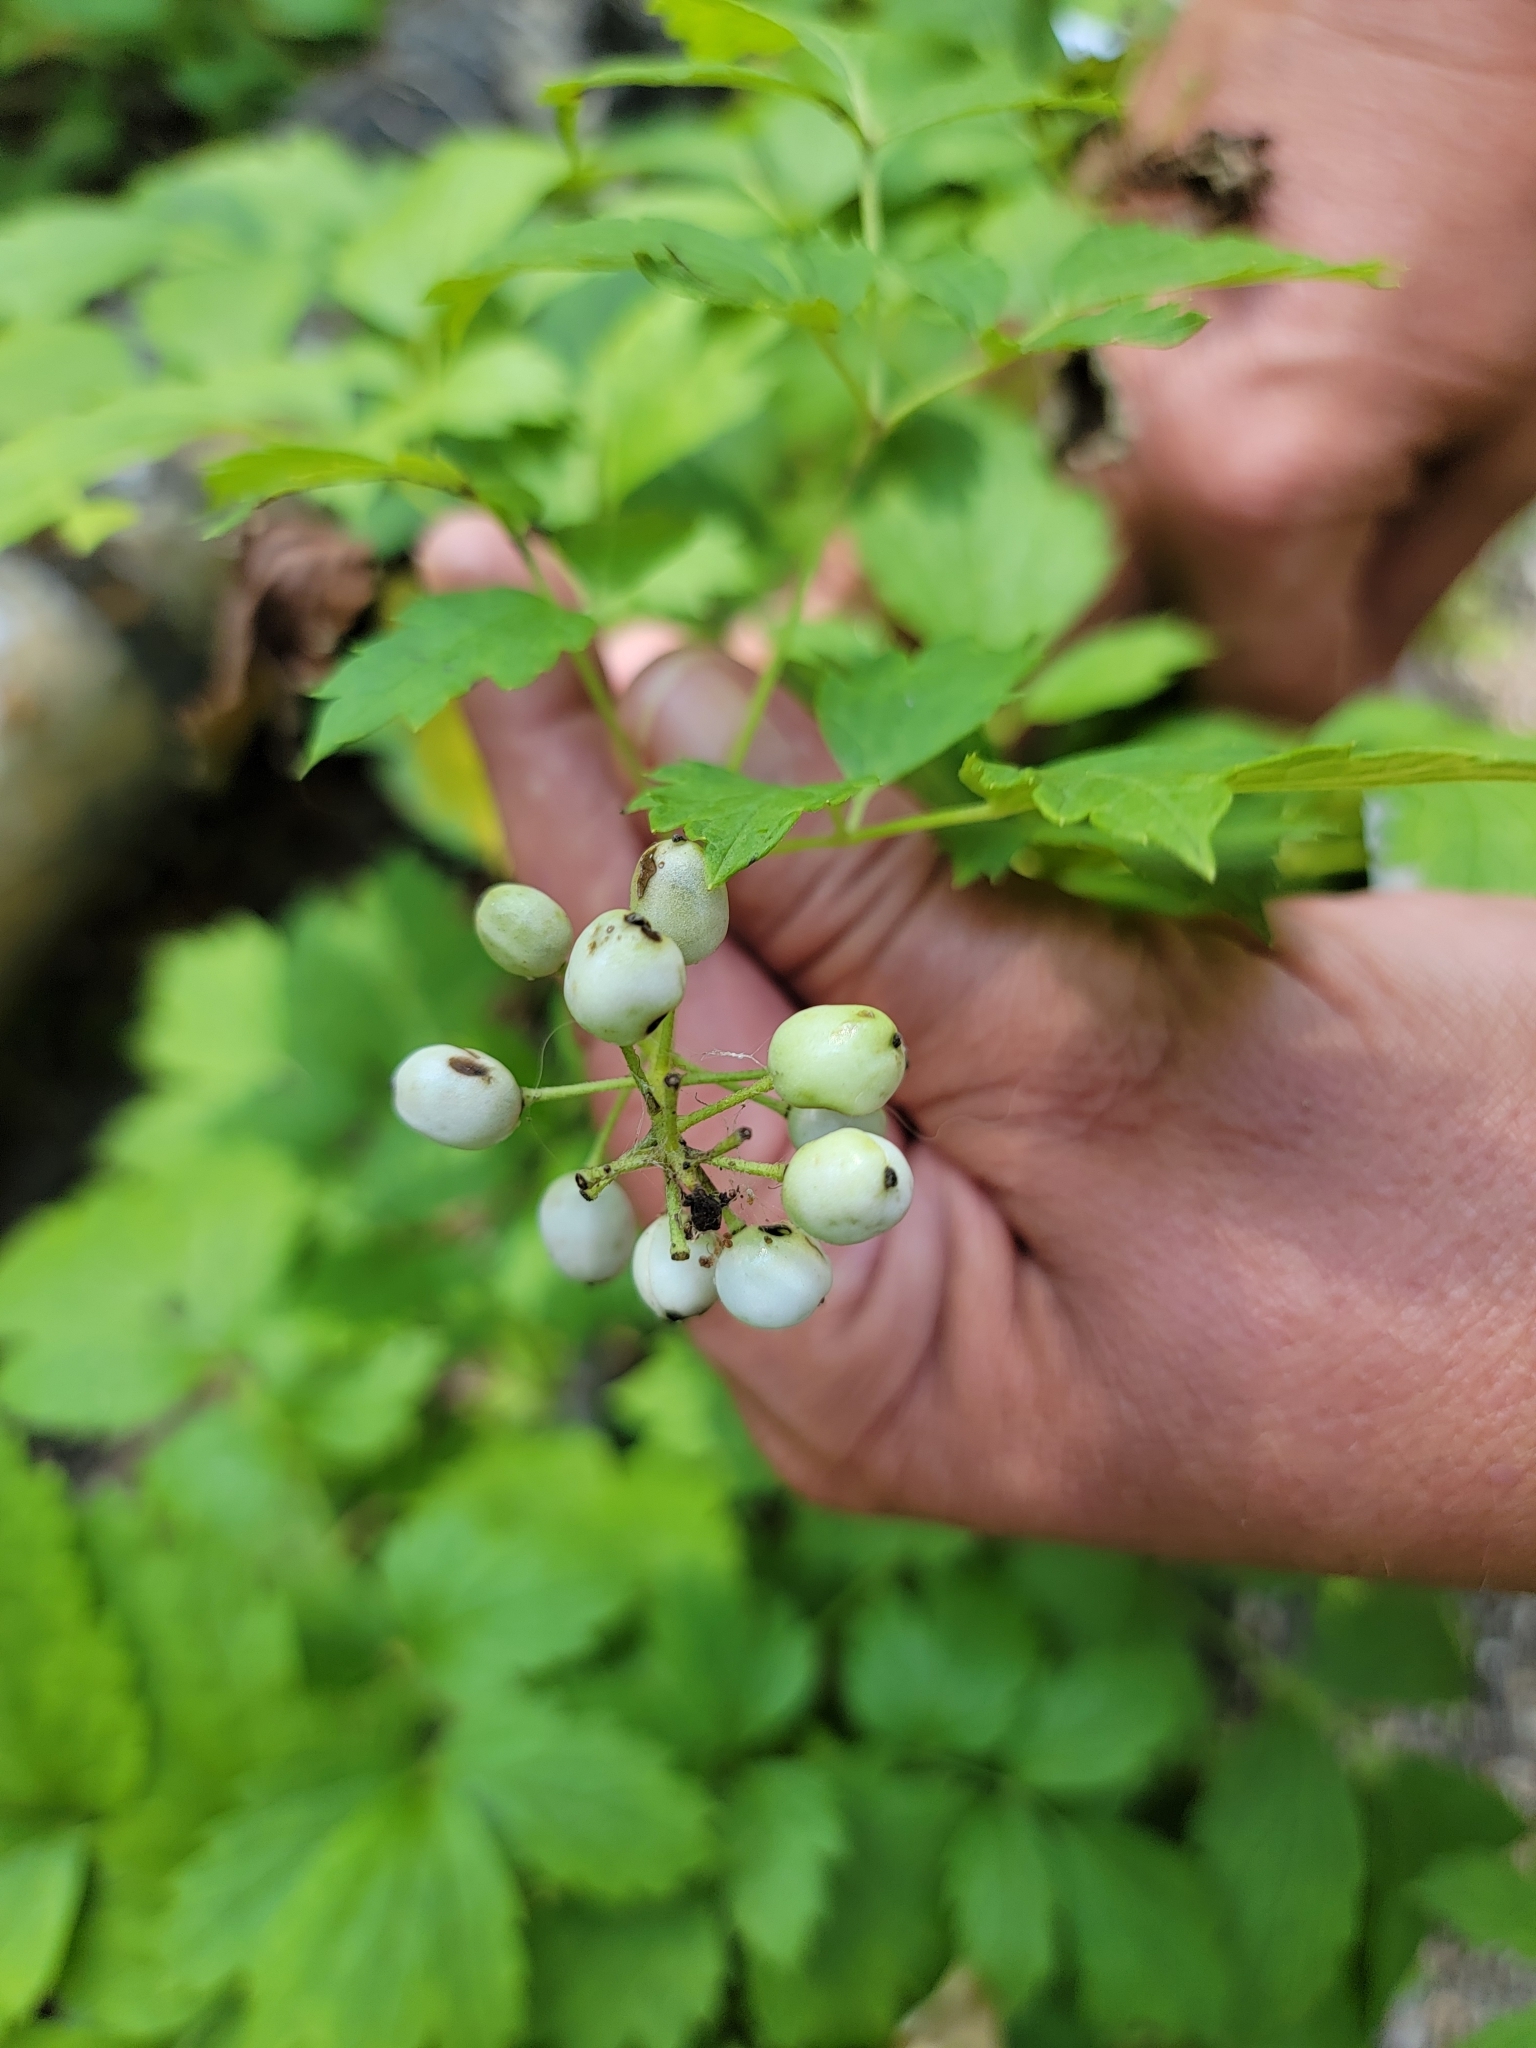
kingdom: Plantae
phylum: Tracheophyta
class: Magnoliopsida
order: Ranunculales
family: Ranunculaceae
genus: Actaea
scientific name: Actaea rubra
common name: Red baneberry
